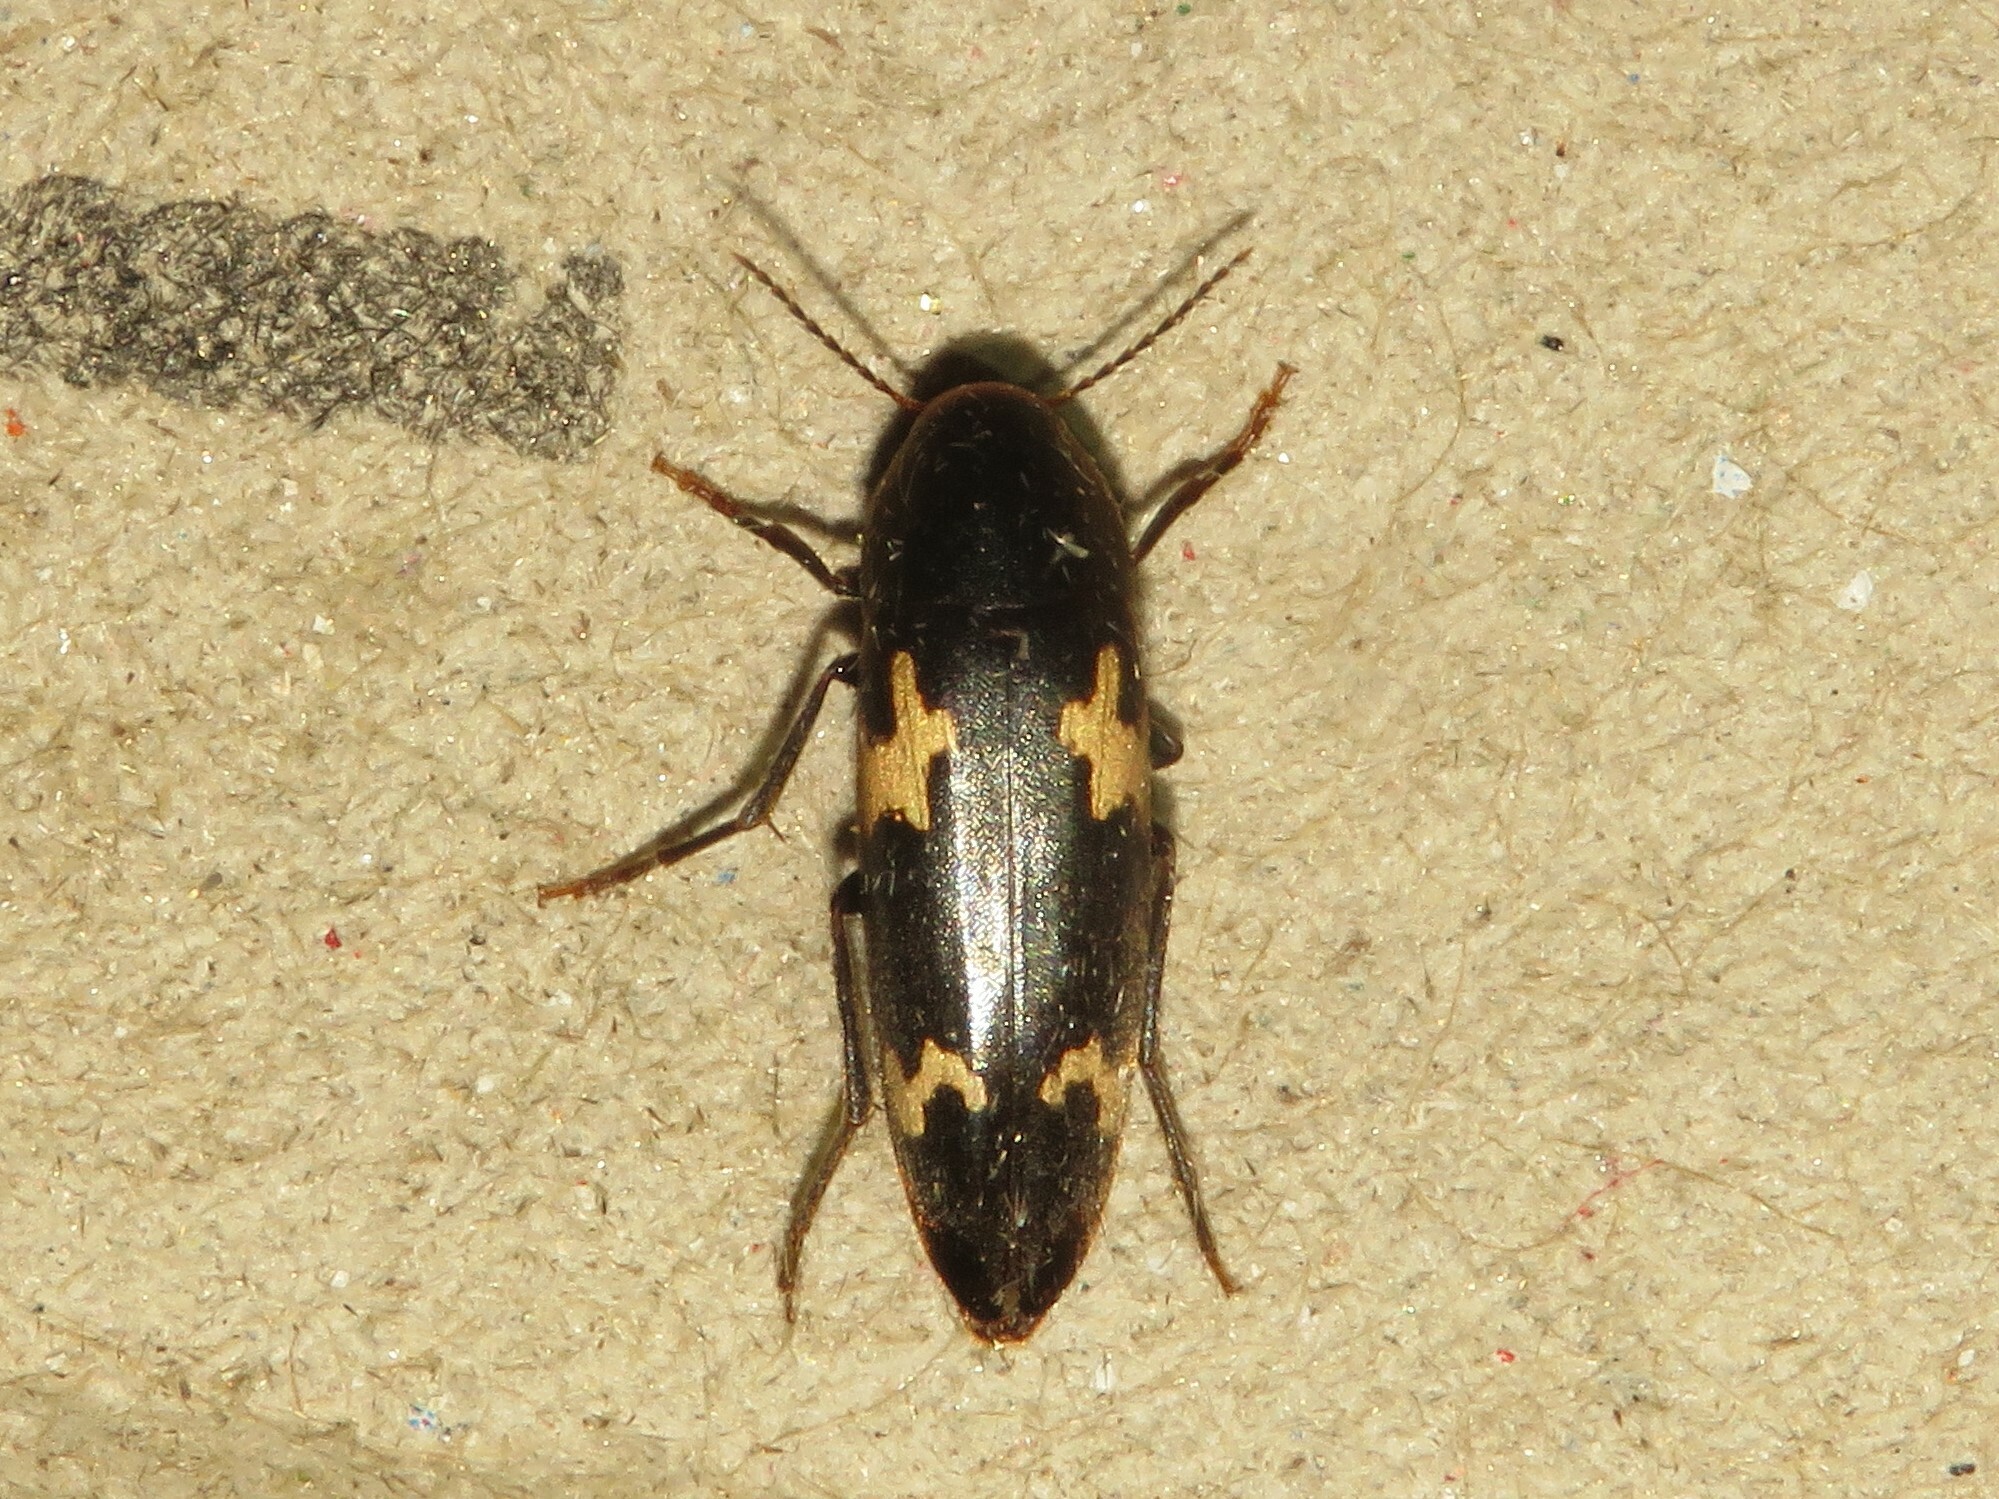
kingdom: Animalia
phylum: Arthropoda
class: Insecta
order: Coleoptera
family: Melandryidae
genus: Dircaea
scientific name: Dircaea liturata
